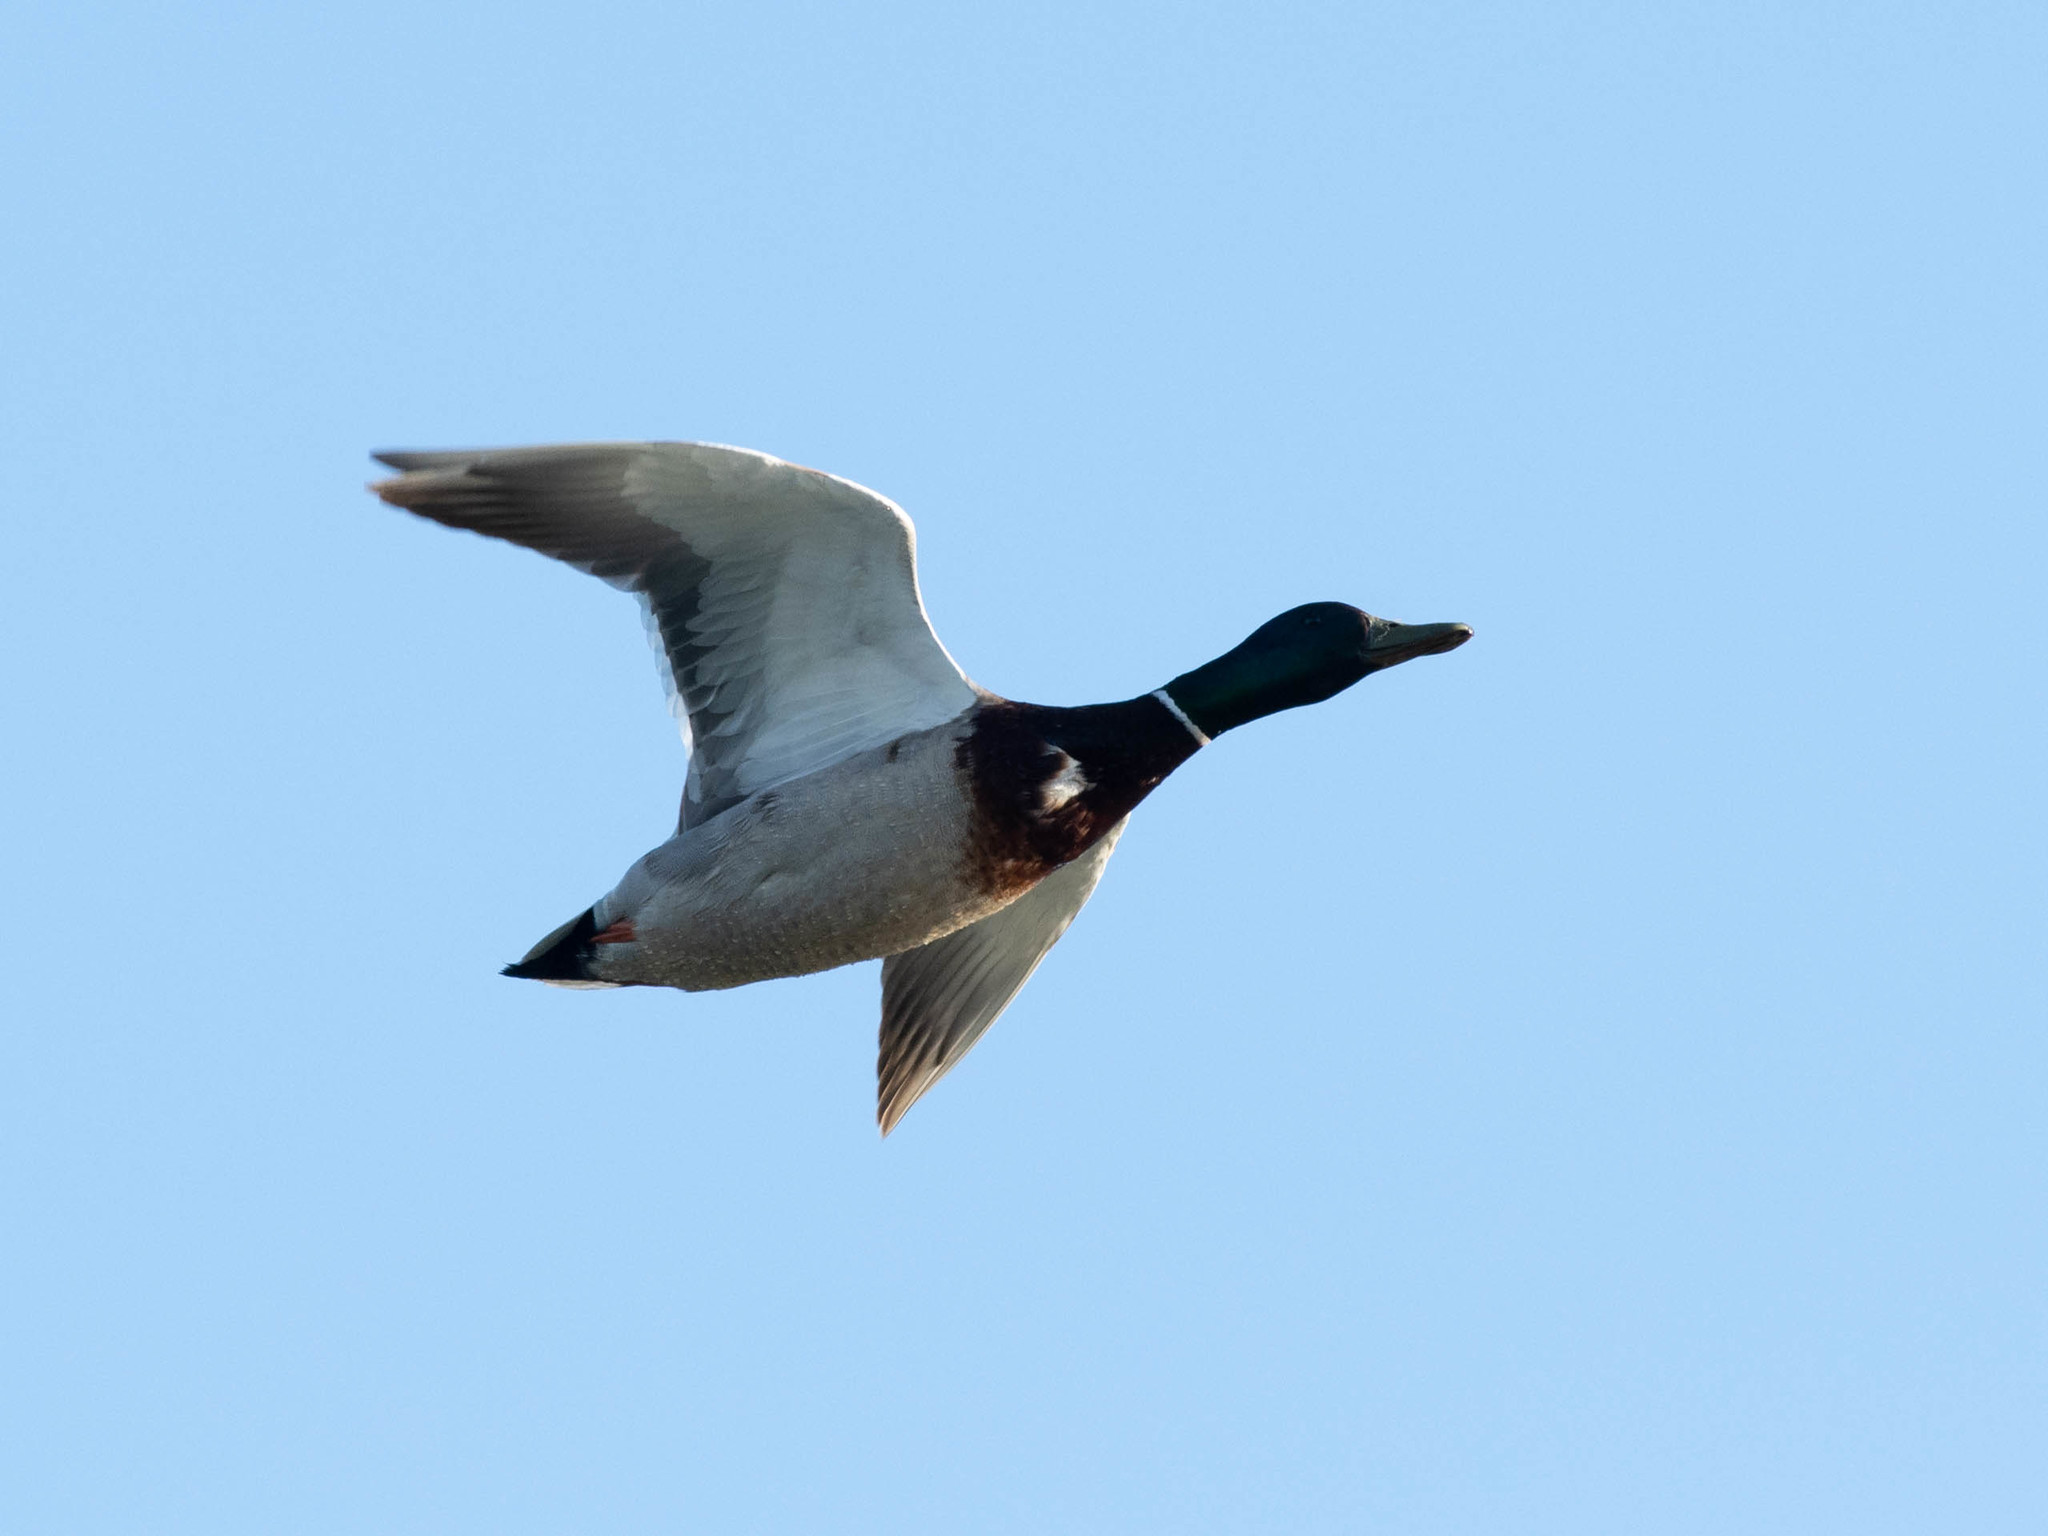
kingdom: Animalia
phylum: Chordata
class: Aves
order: Anseriformes
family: Anatidae
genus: Anas
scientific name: Anas platyrhynchos
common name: Mallard
